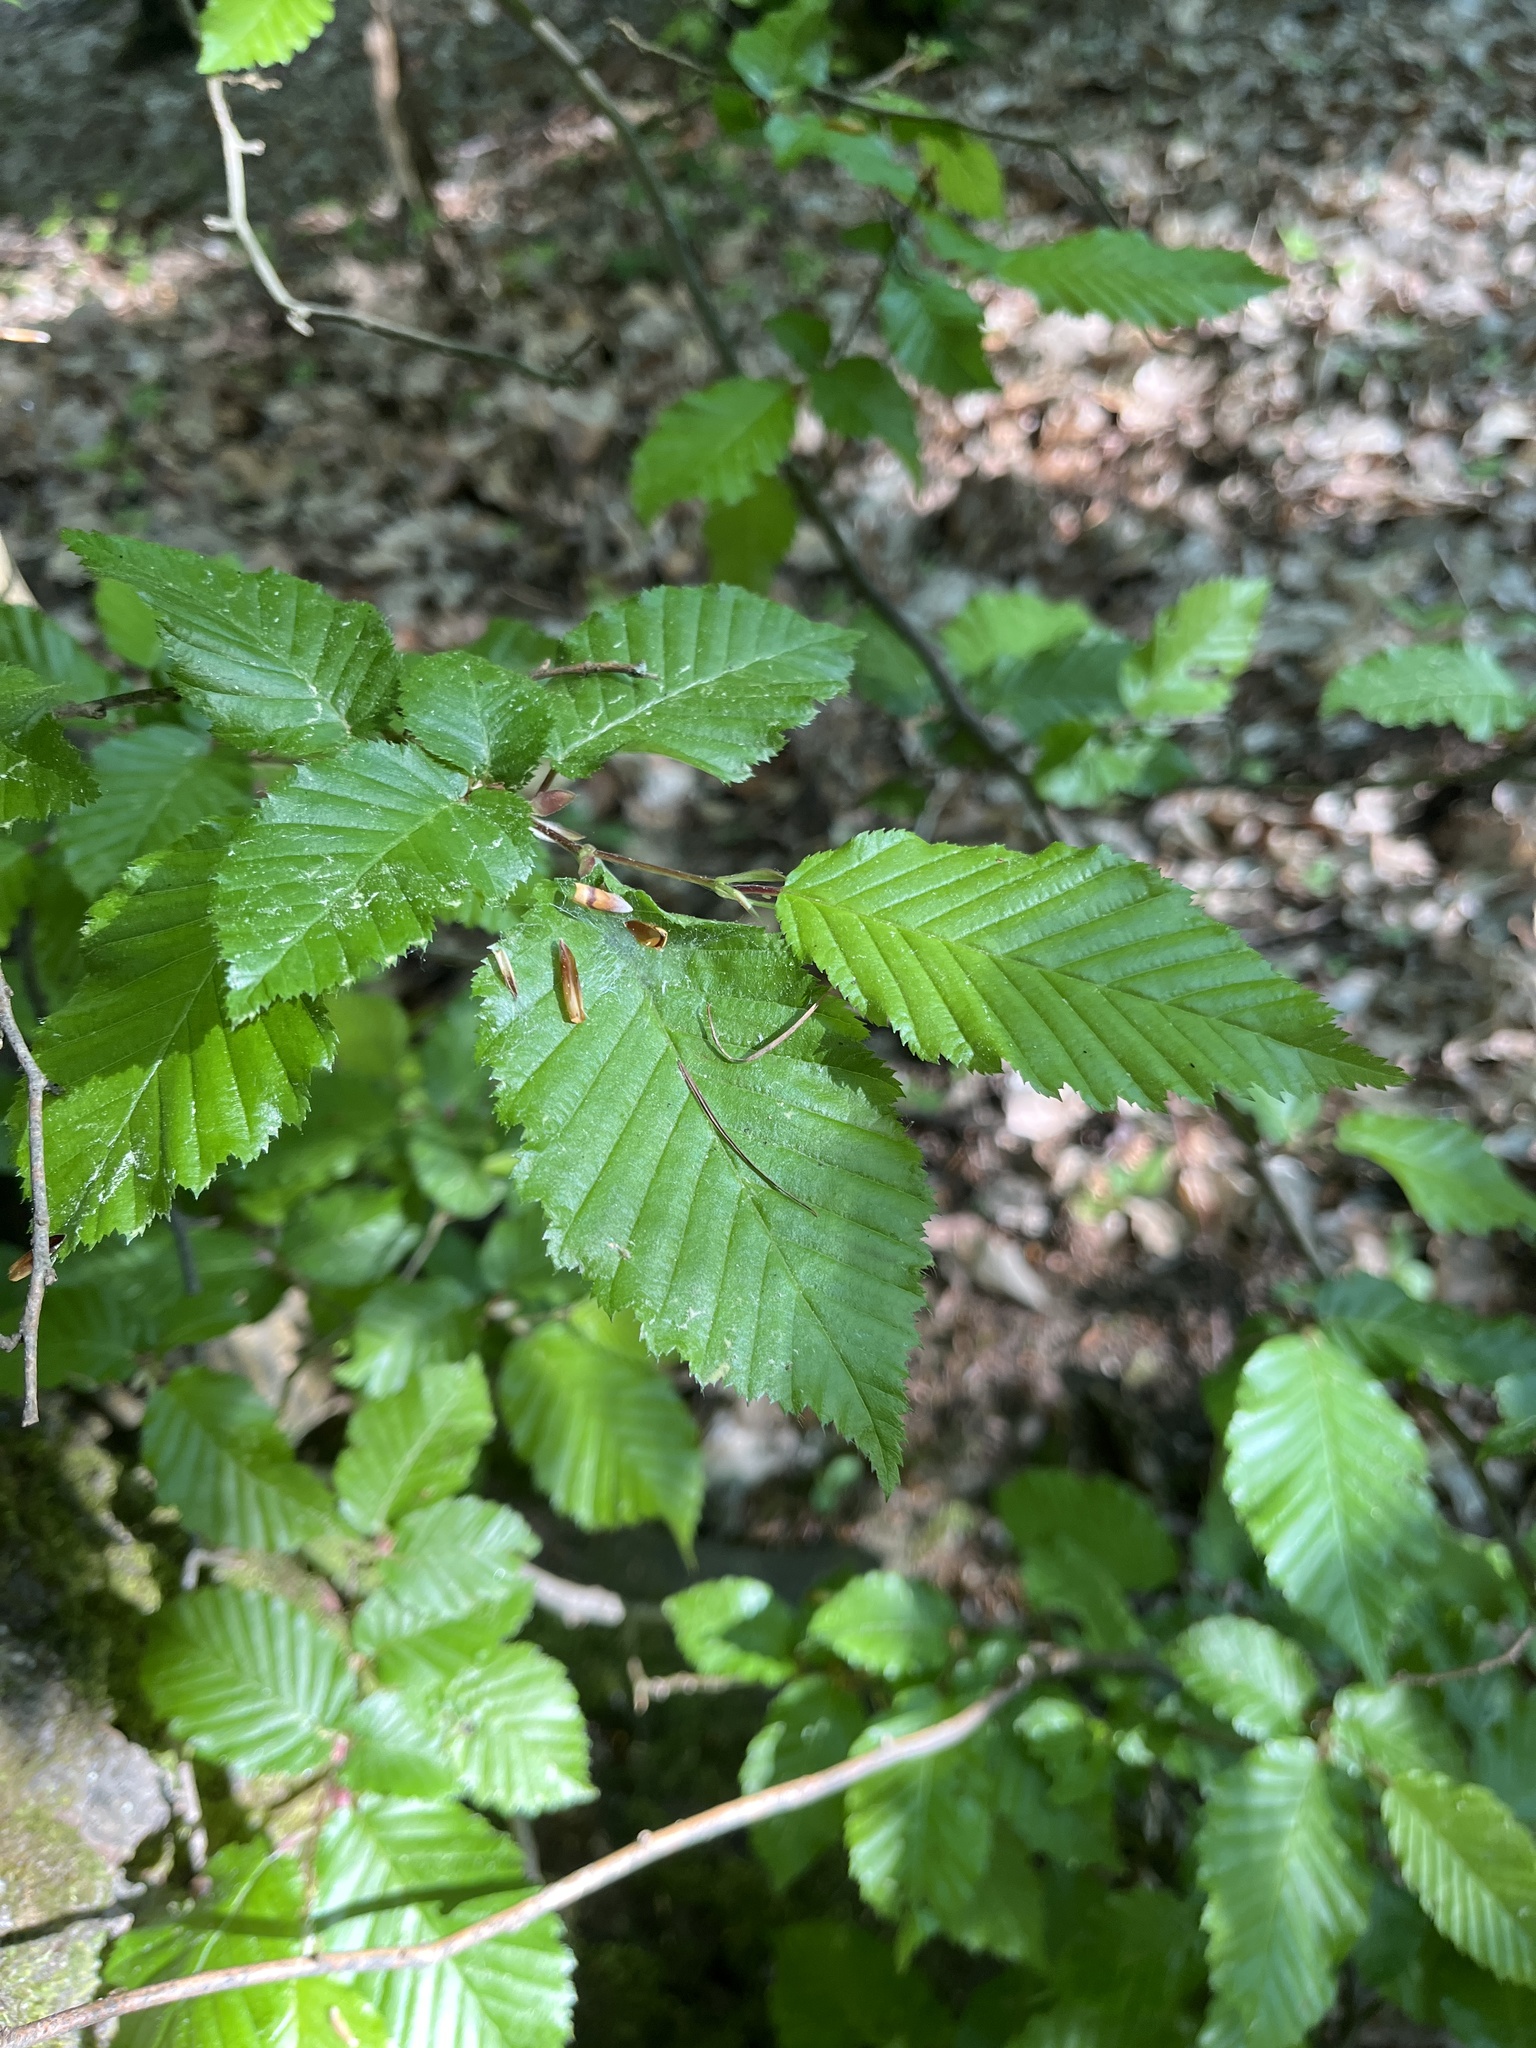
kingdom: Plantae
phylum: Tracheophyta
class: Magnoliopsida
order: Fagales
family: Betulaceae
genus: Carpinus
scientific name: Carpinus betulus
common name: Hornbeam
